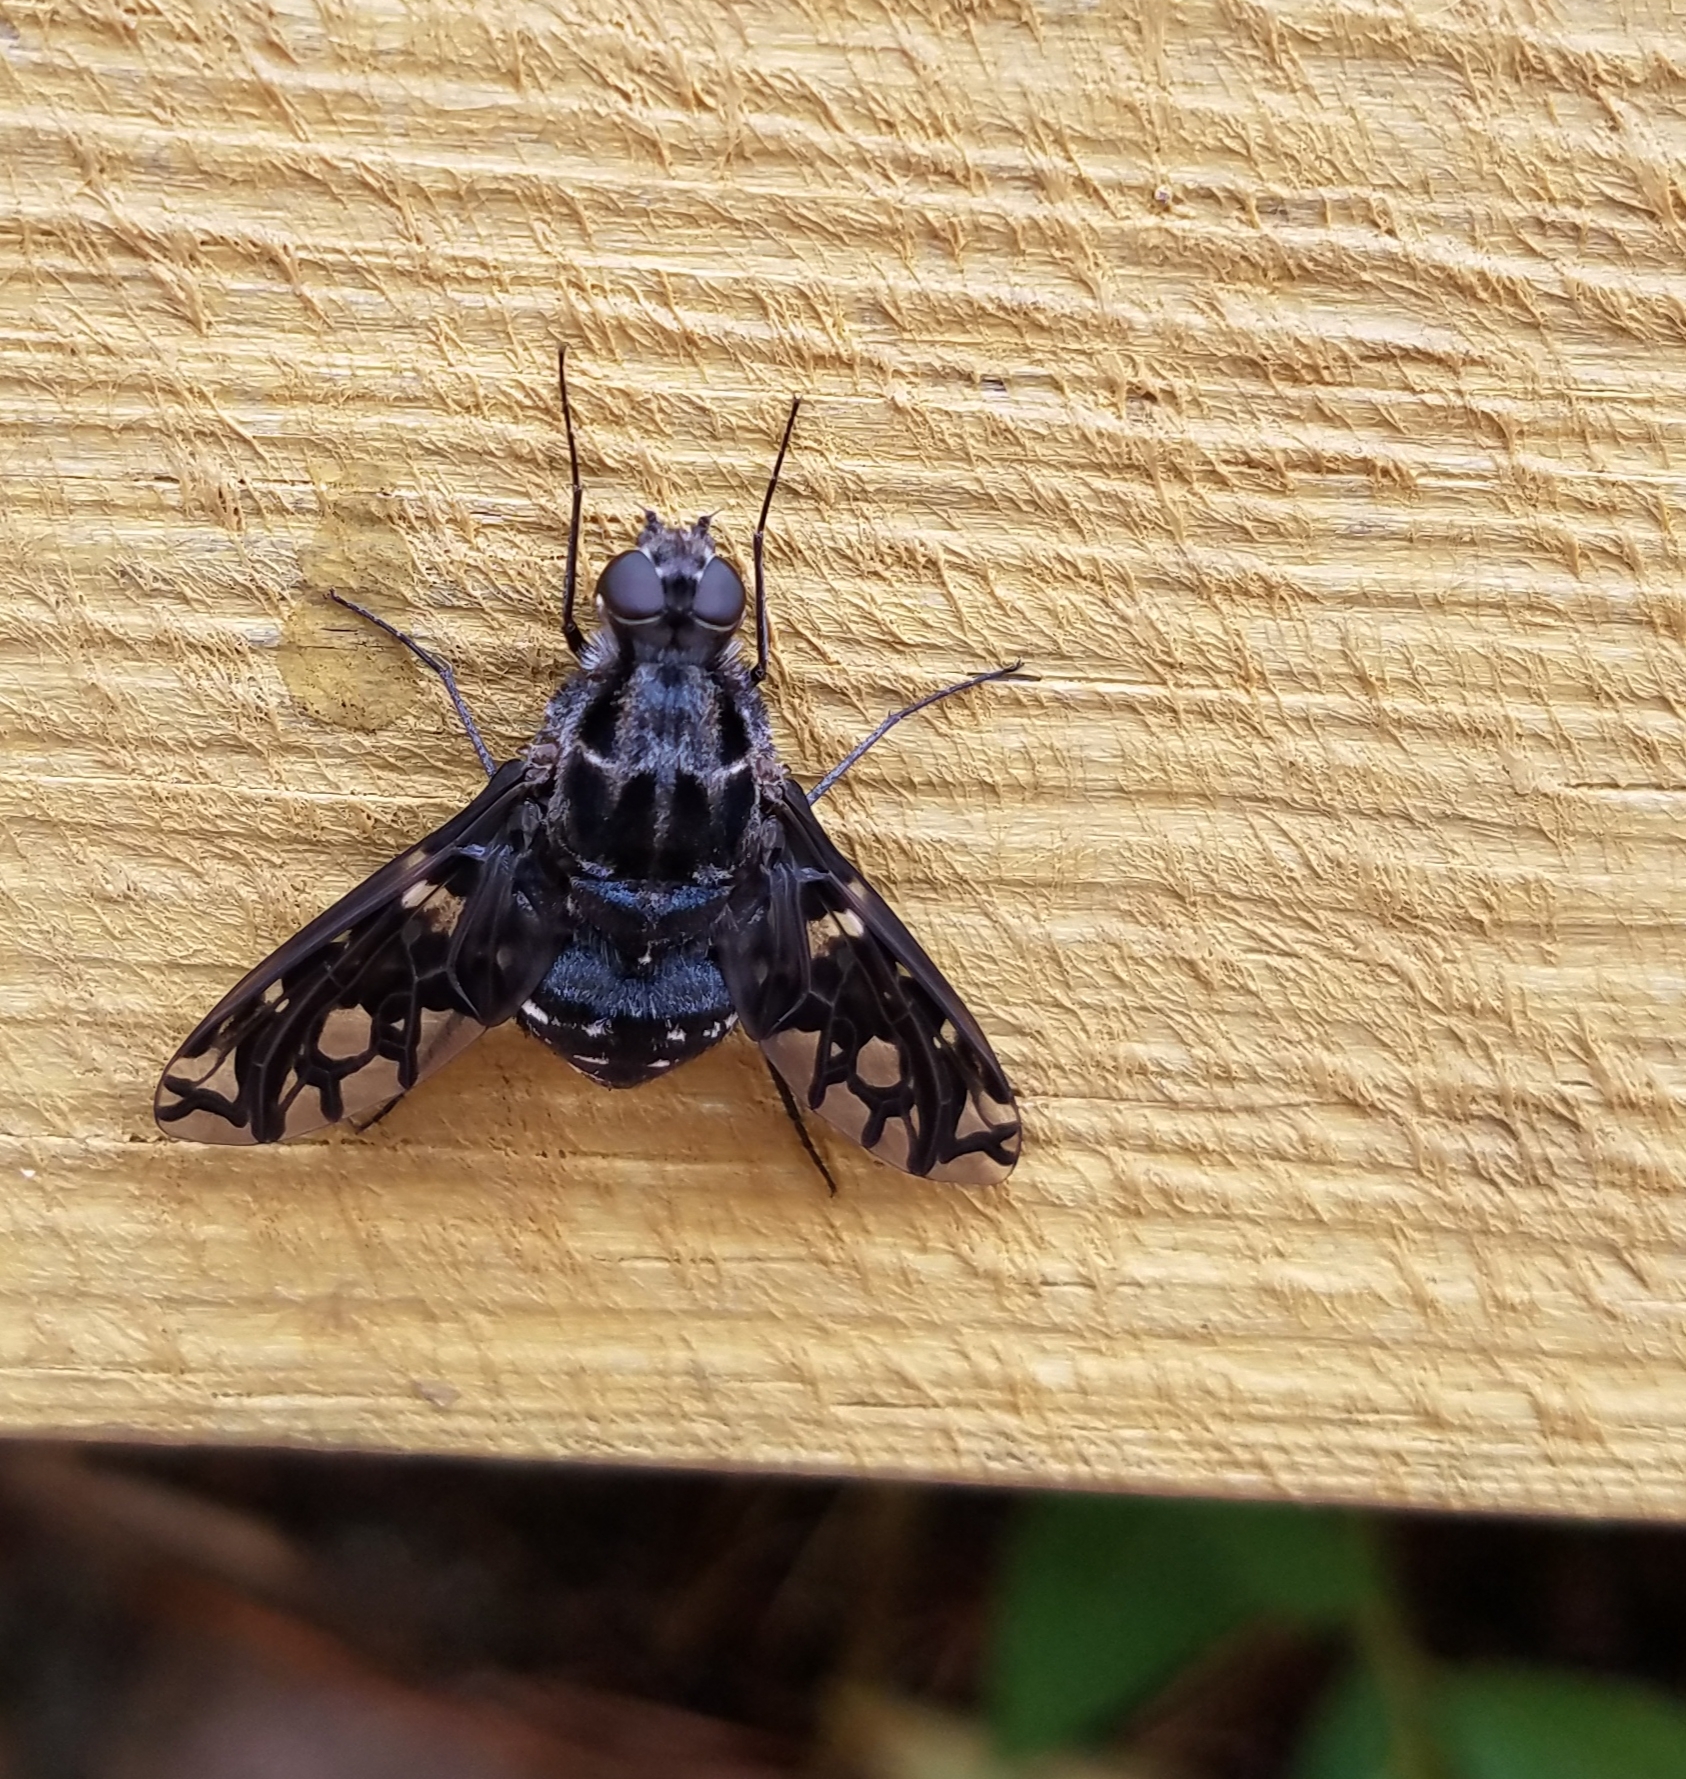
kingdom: Animalia
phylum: Arthropoda
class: Insecta
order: Diptera
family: Bombyliidae
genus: Xenox
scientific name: Xenox tigrinus
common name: Tiger bee fly
